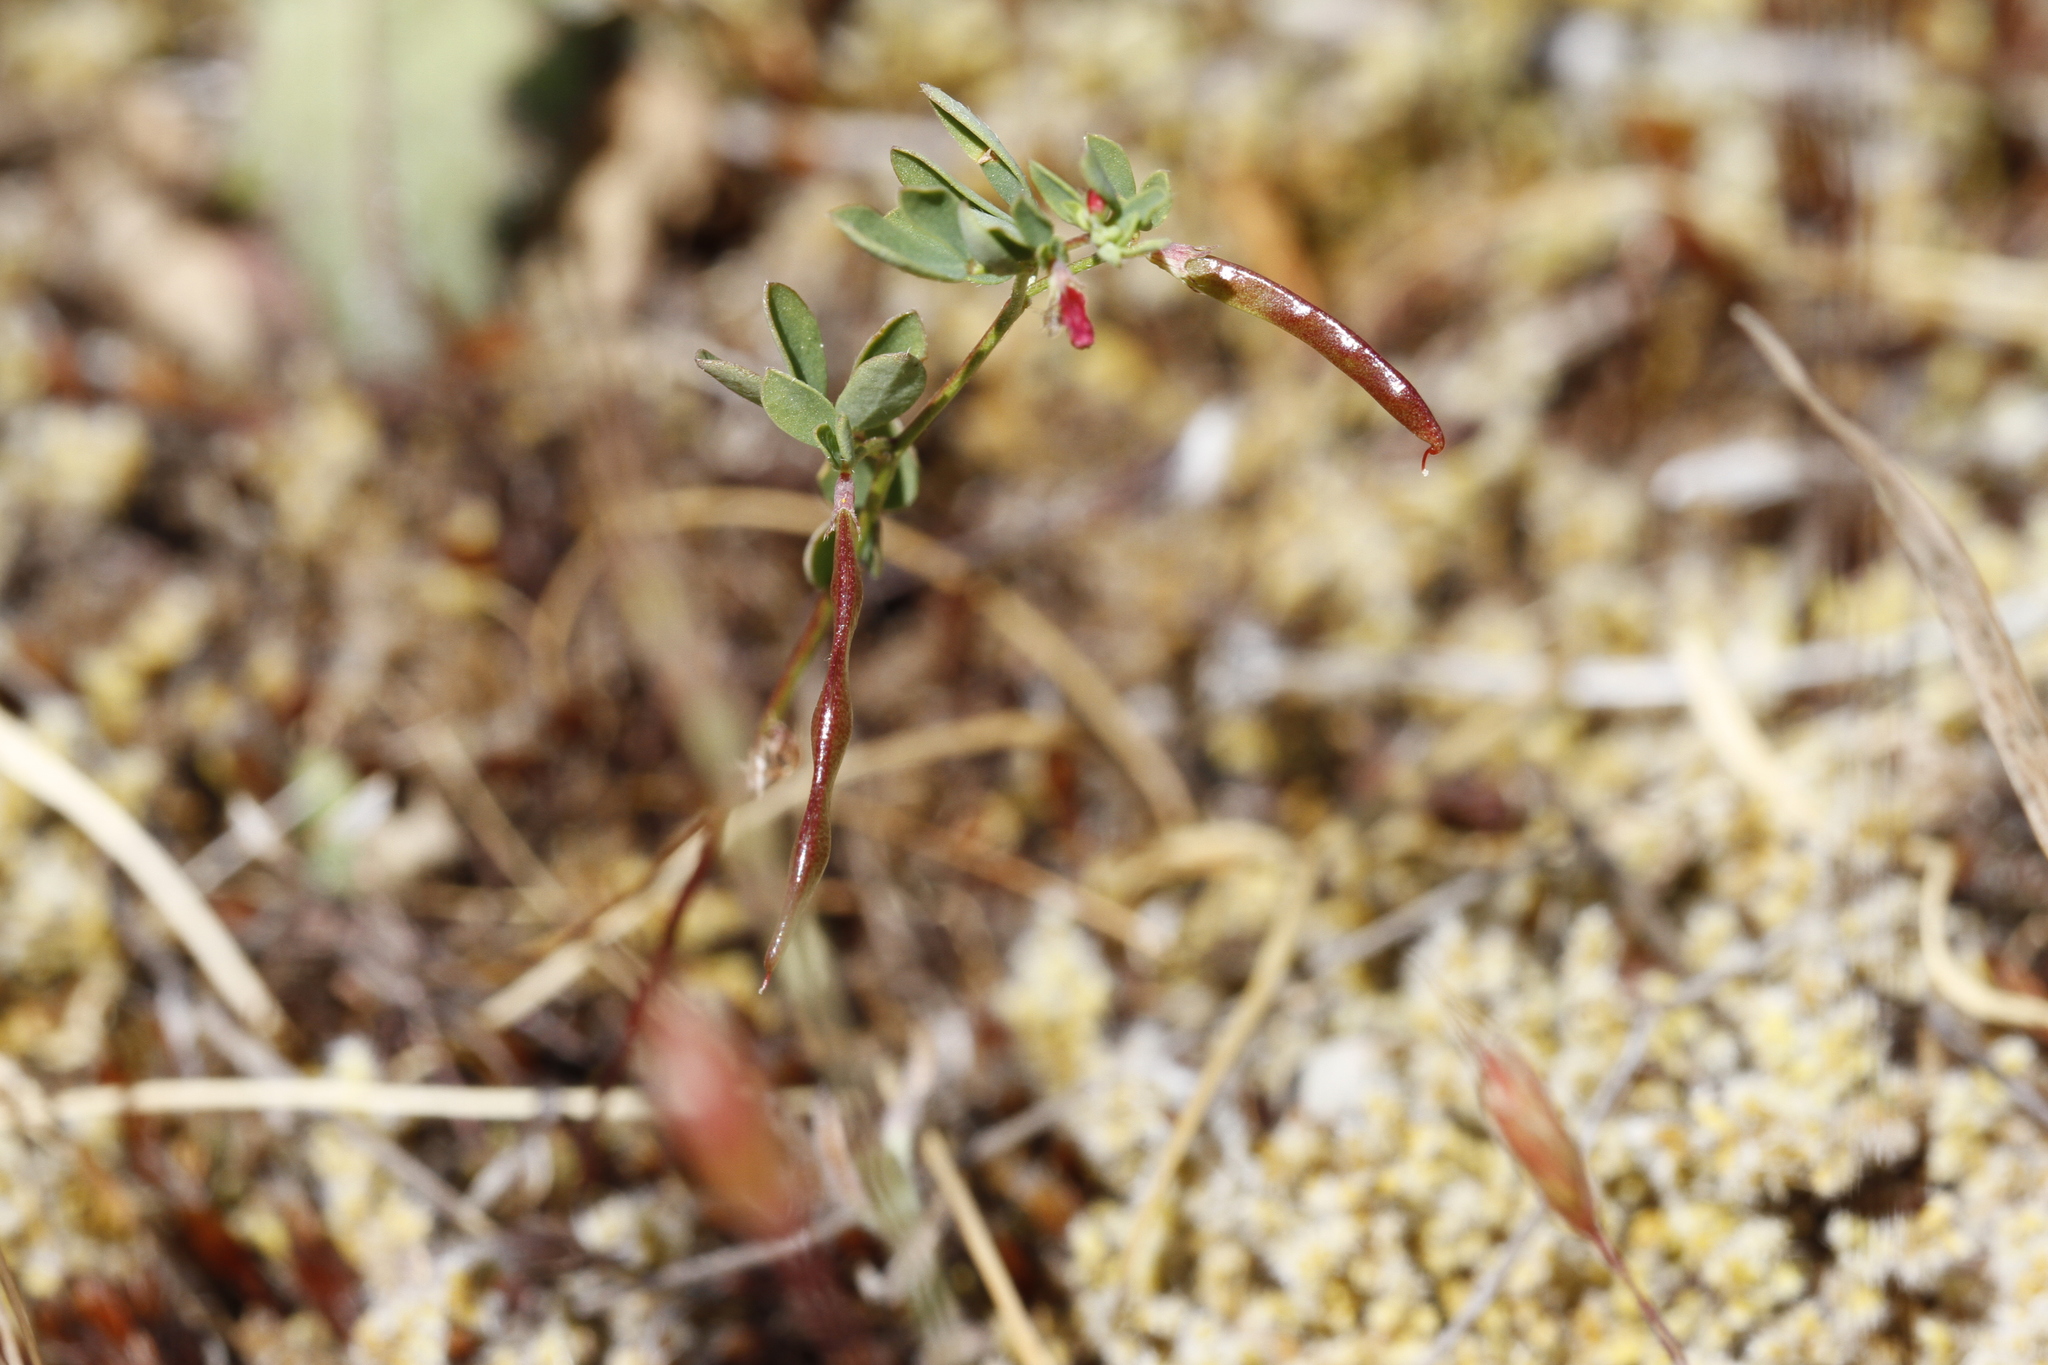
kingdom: Plantae
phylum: Tracheophyta
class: Magnoliopsida
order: Fabales
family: Fabaceae
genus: Acmispon
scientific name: Acmispon parviflorus
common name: Desert deer-vetch
